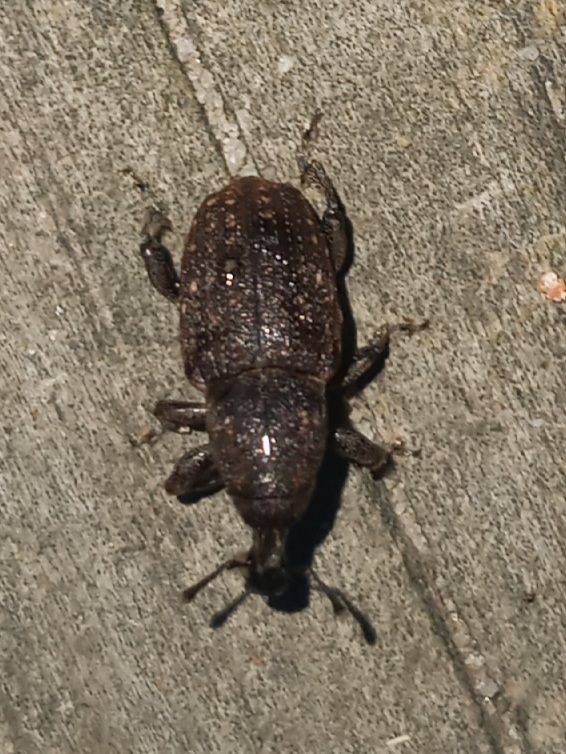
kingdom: Animalia
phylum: Arthropoda
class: Insecta
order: Coleoptera
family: Curculionidae
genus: Pachylobius
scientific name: Pachylobius picivorus
